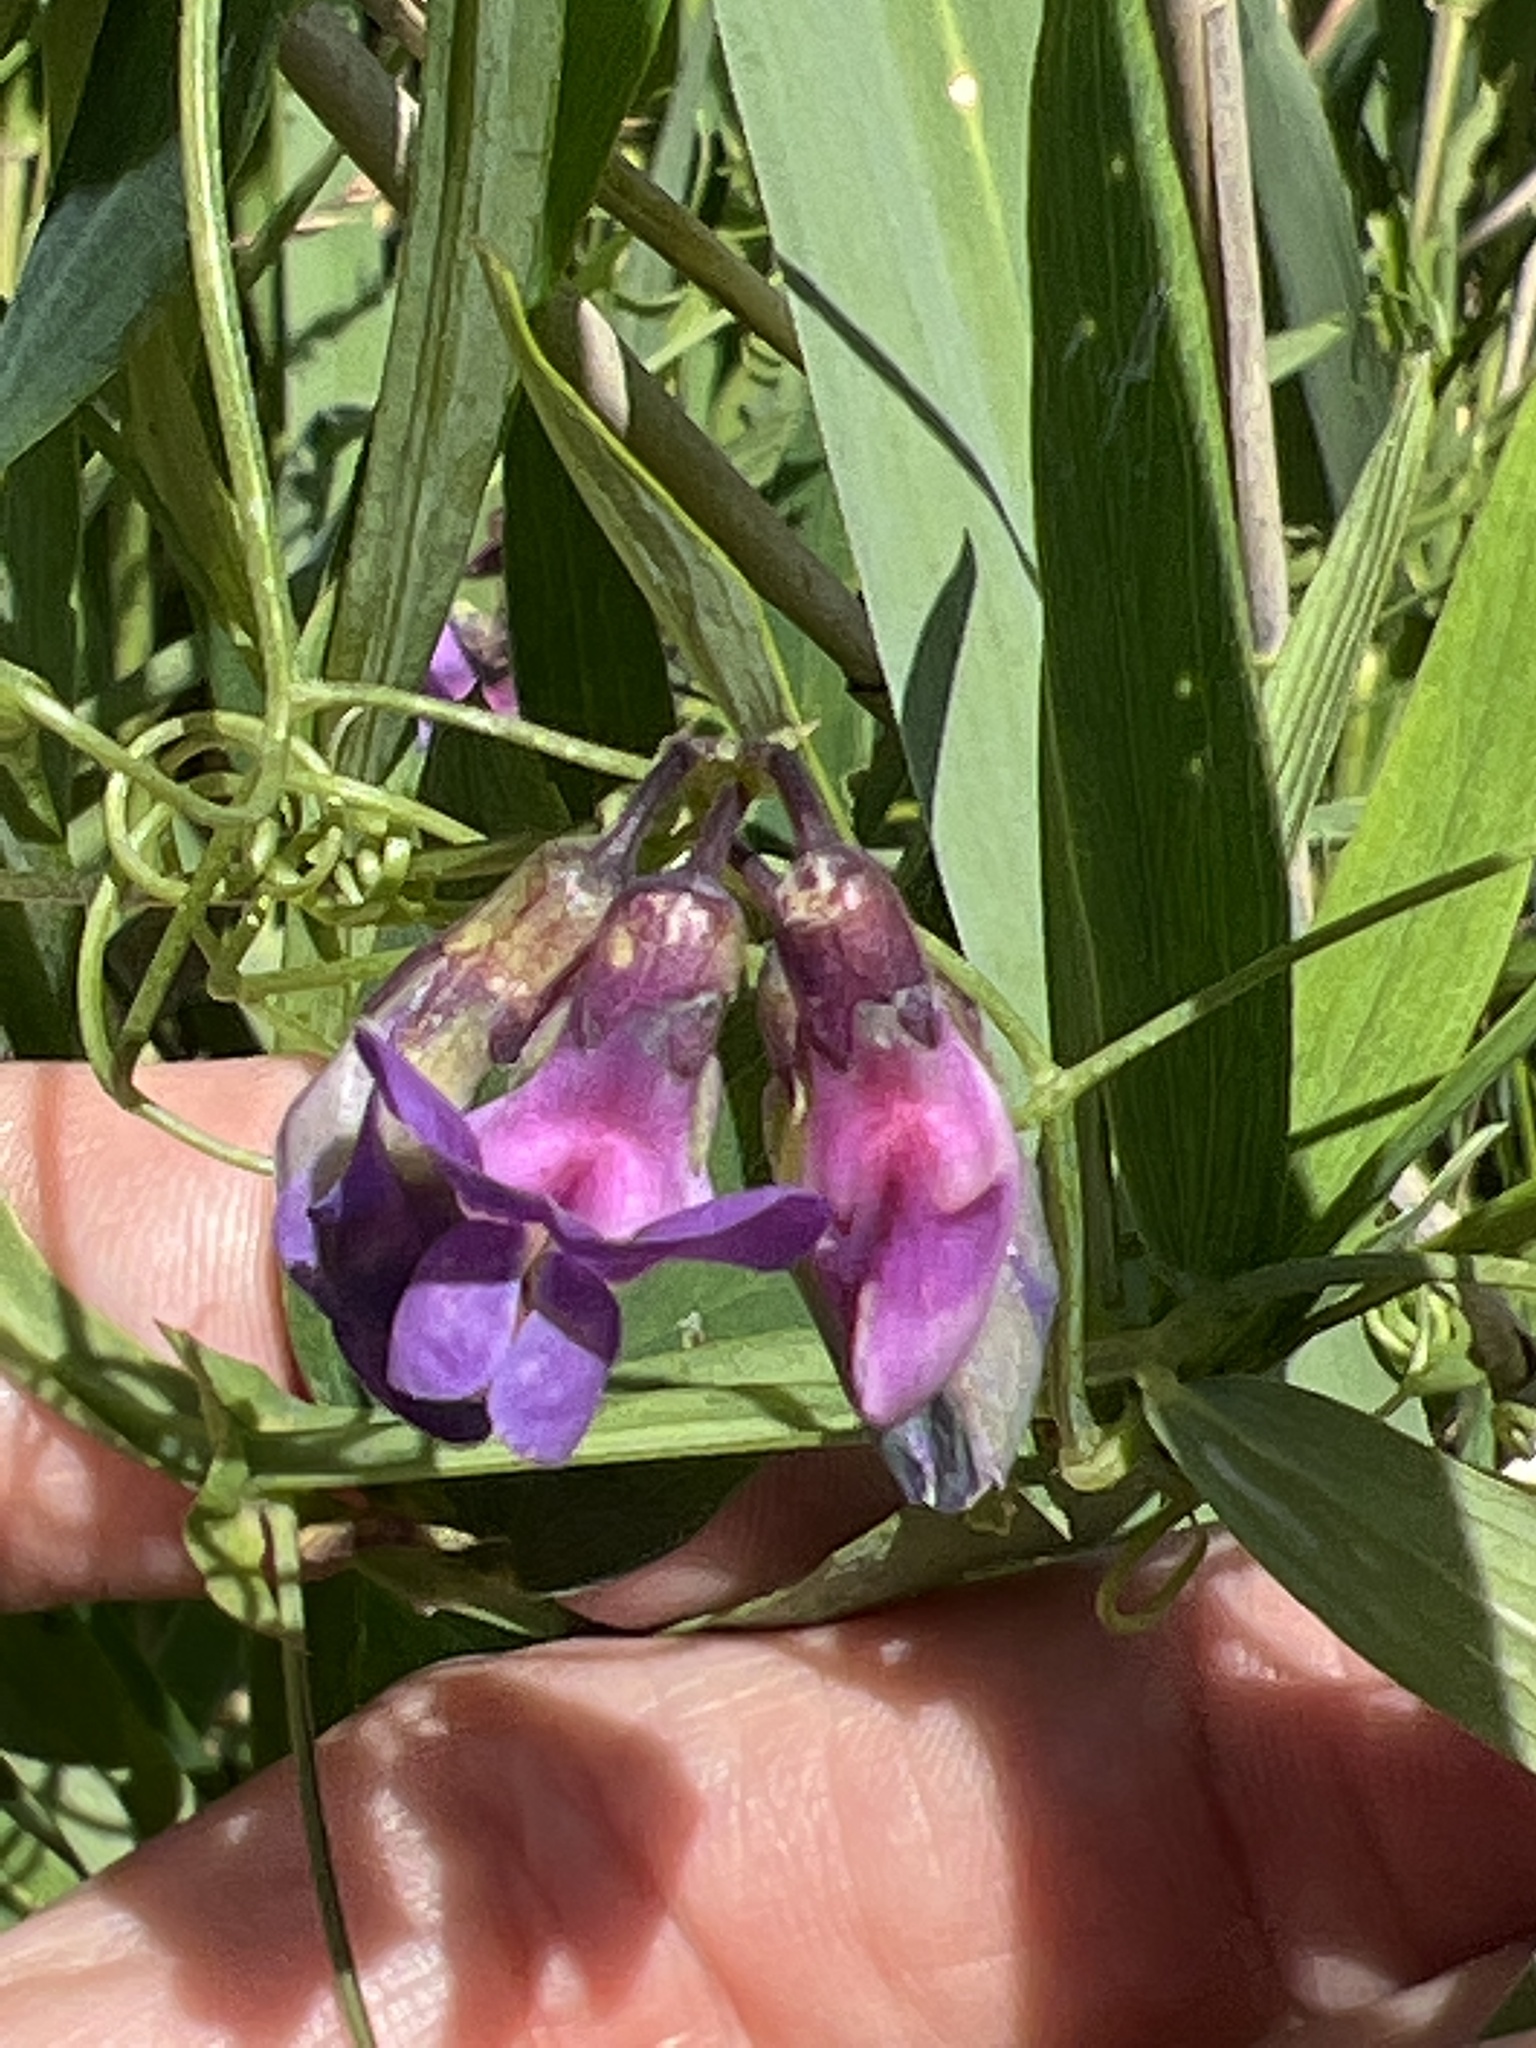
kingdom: Plantae
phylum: Tracheophyta
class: Magnoliopsida
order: Fabales
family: Fabaceae
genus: Lathyrus
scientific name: Lathyrus linifolius
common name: Bitter-vetch
